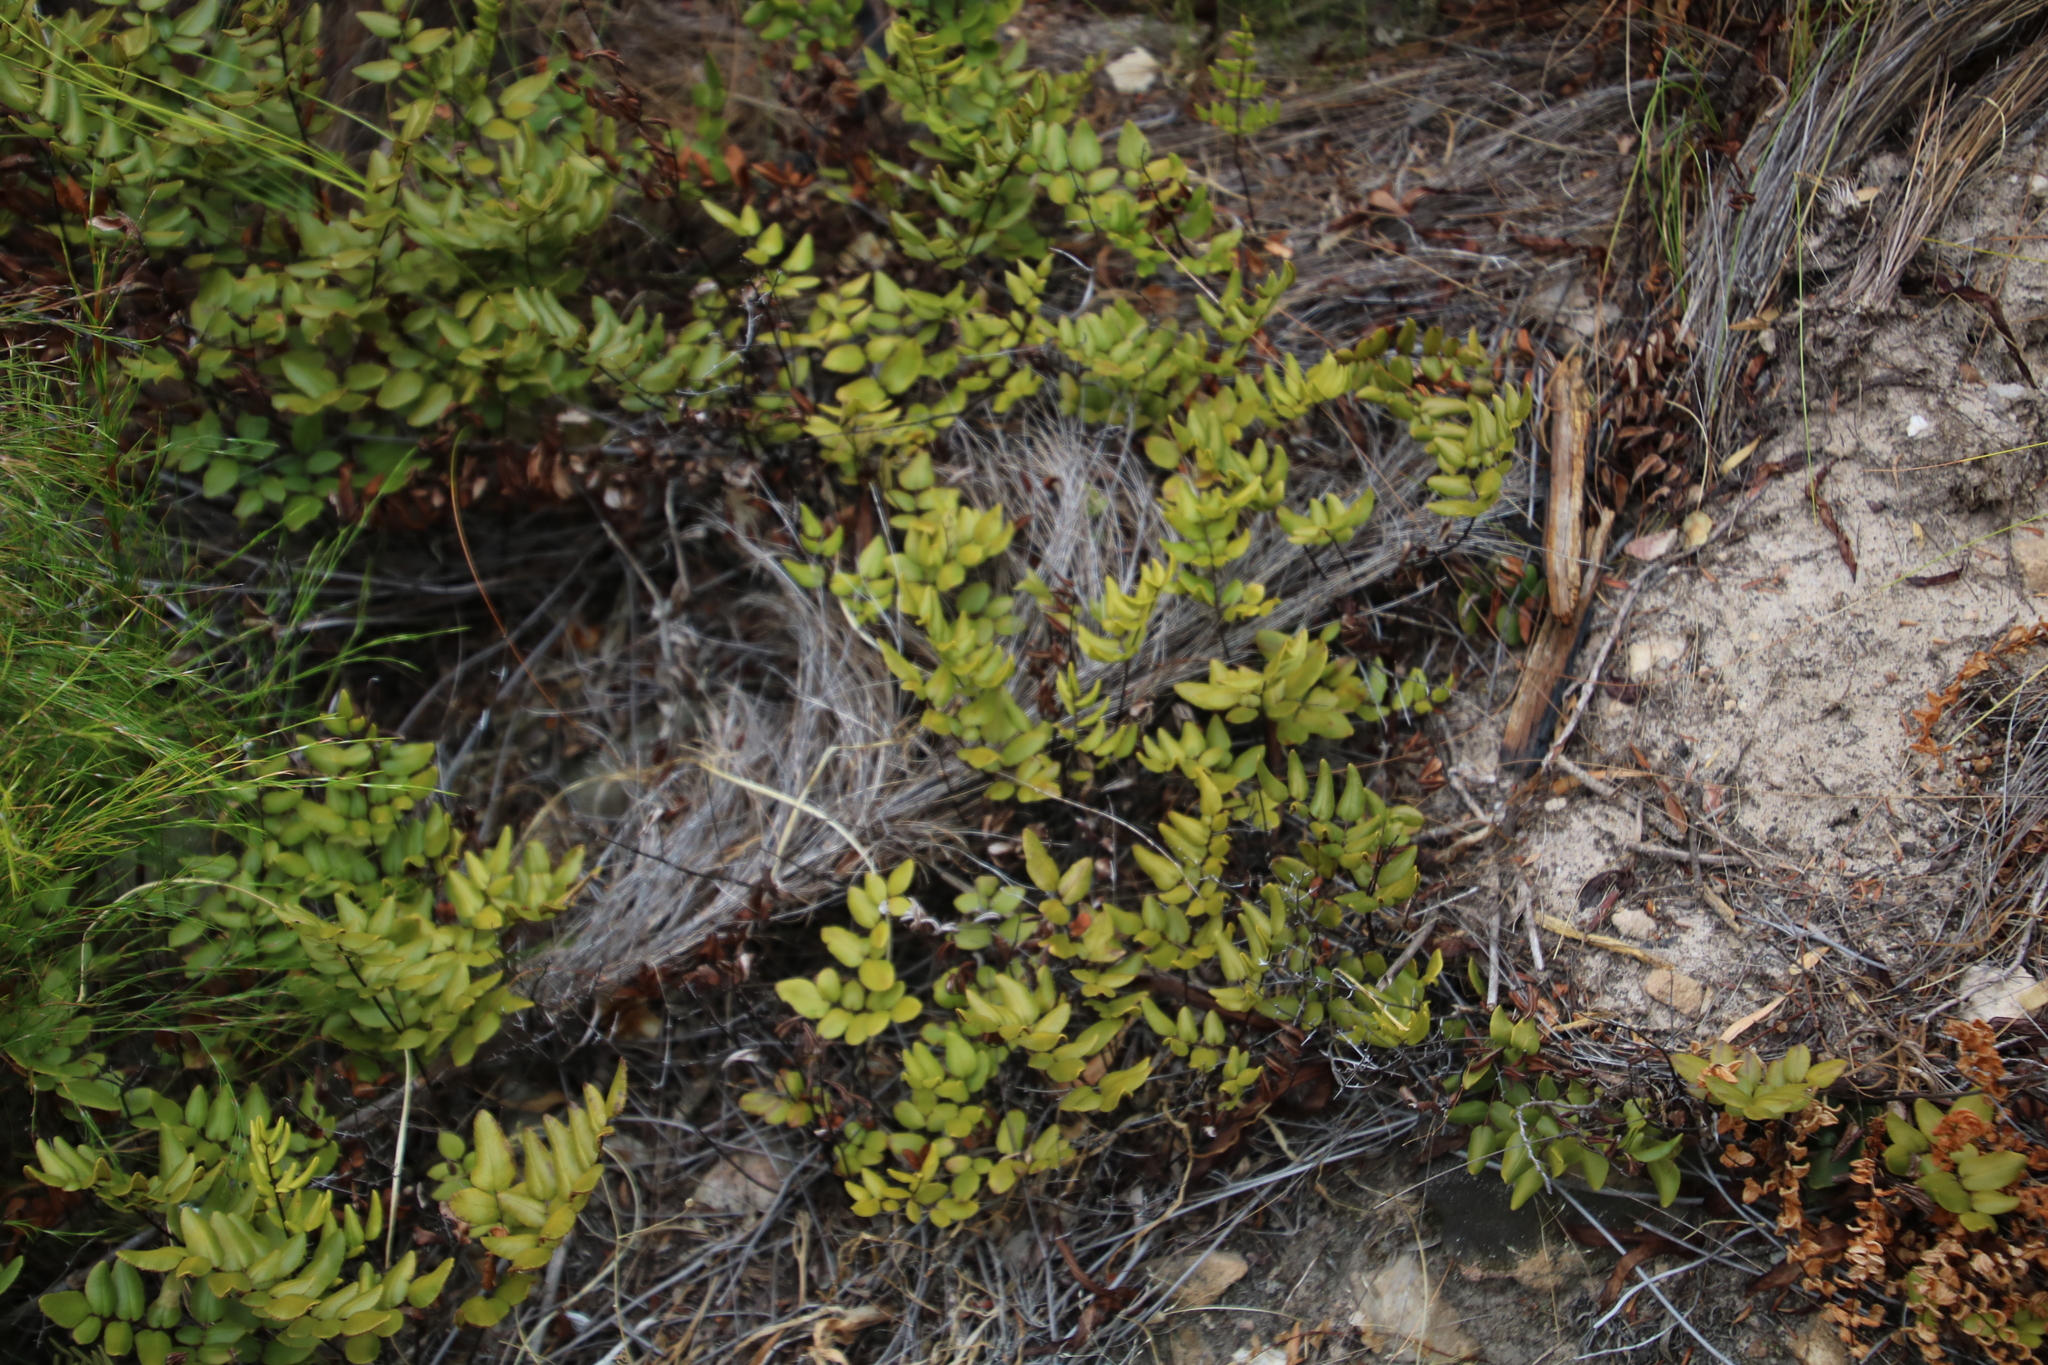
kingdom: Plantae
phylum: Tracheophyta
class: Polypodiopsida
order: Polypodiales
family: Pteridaceae
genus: Pellaea
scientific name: Pellaea pteroides
